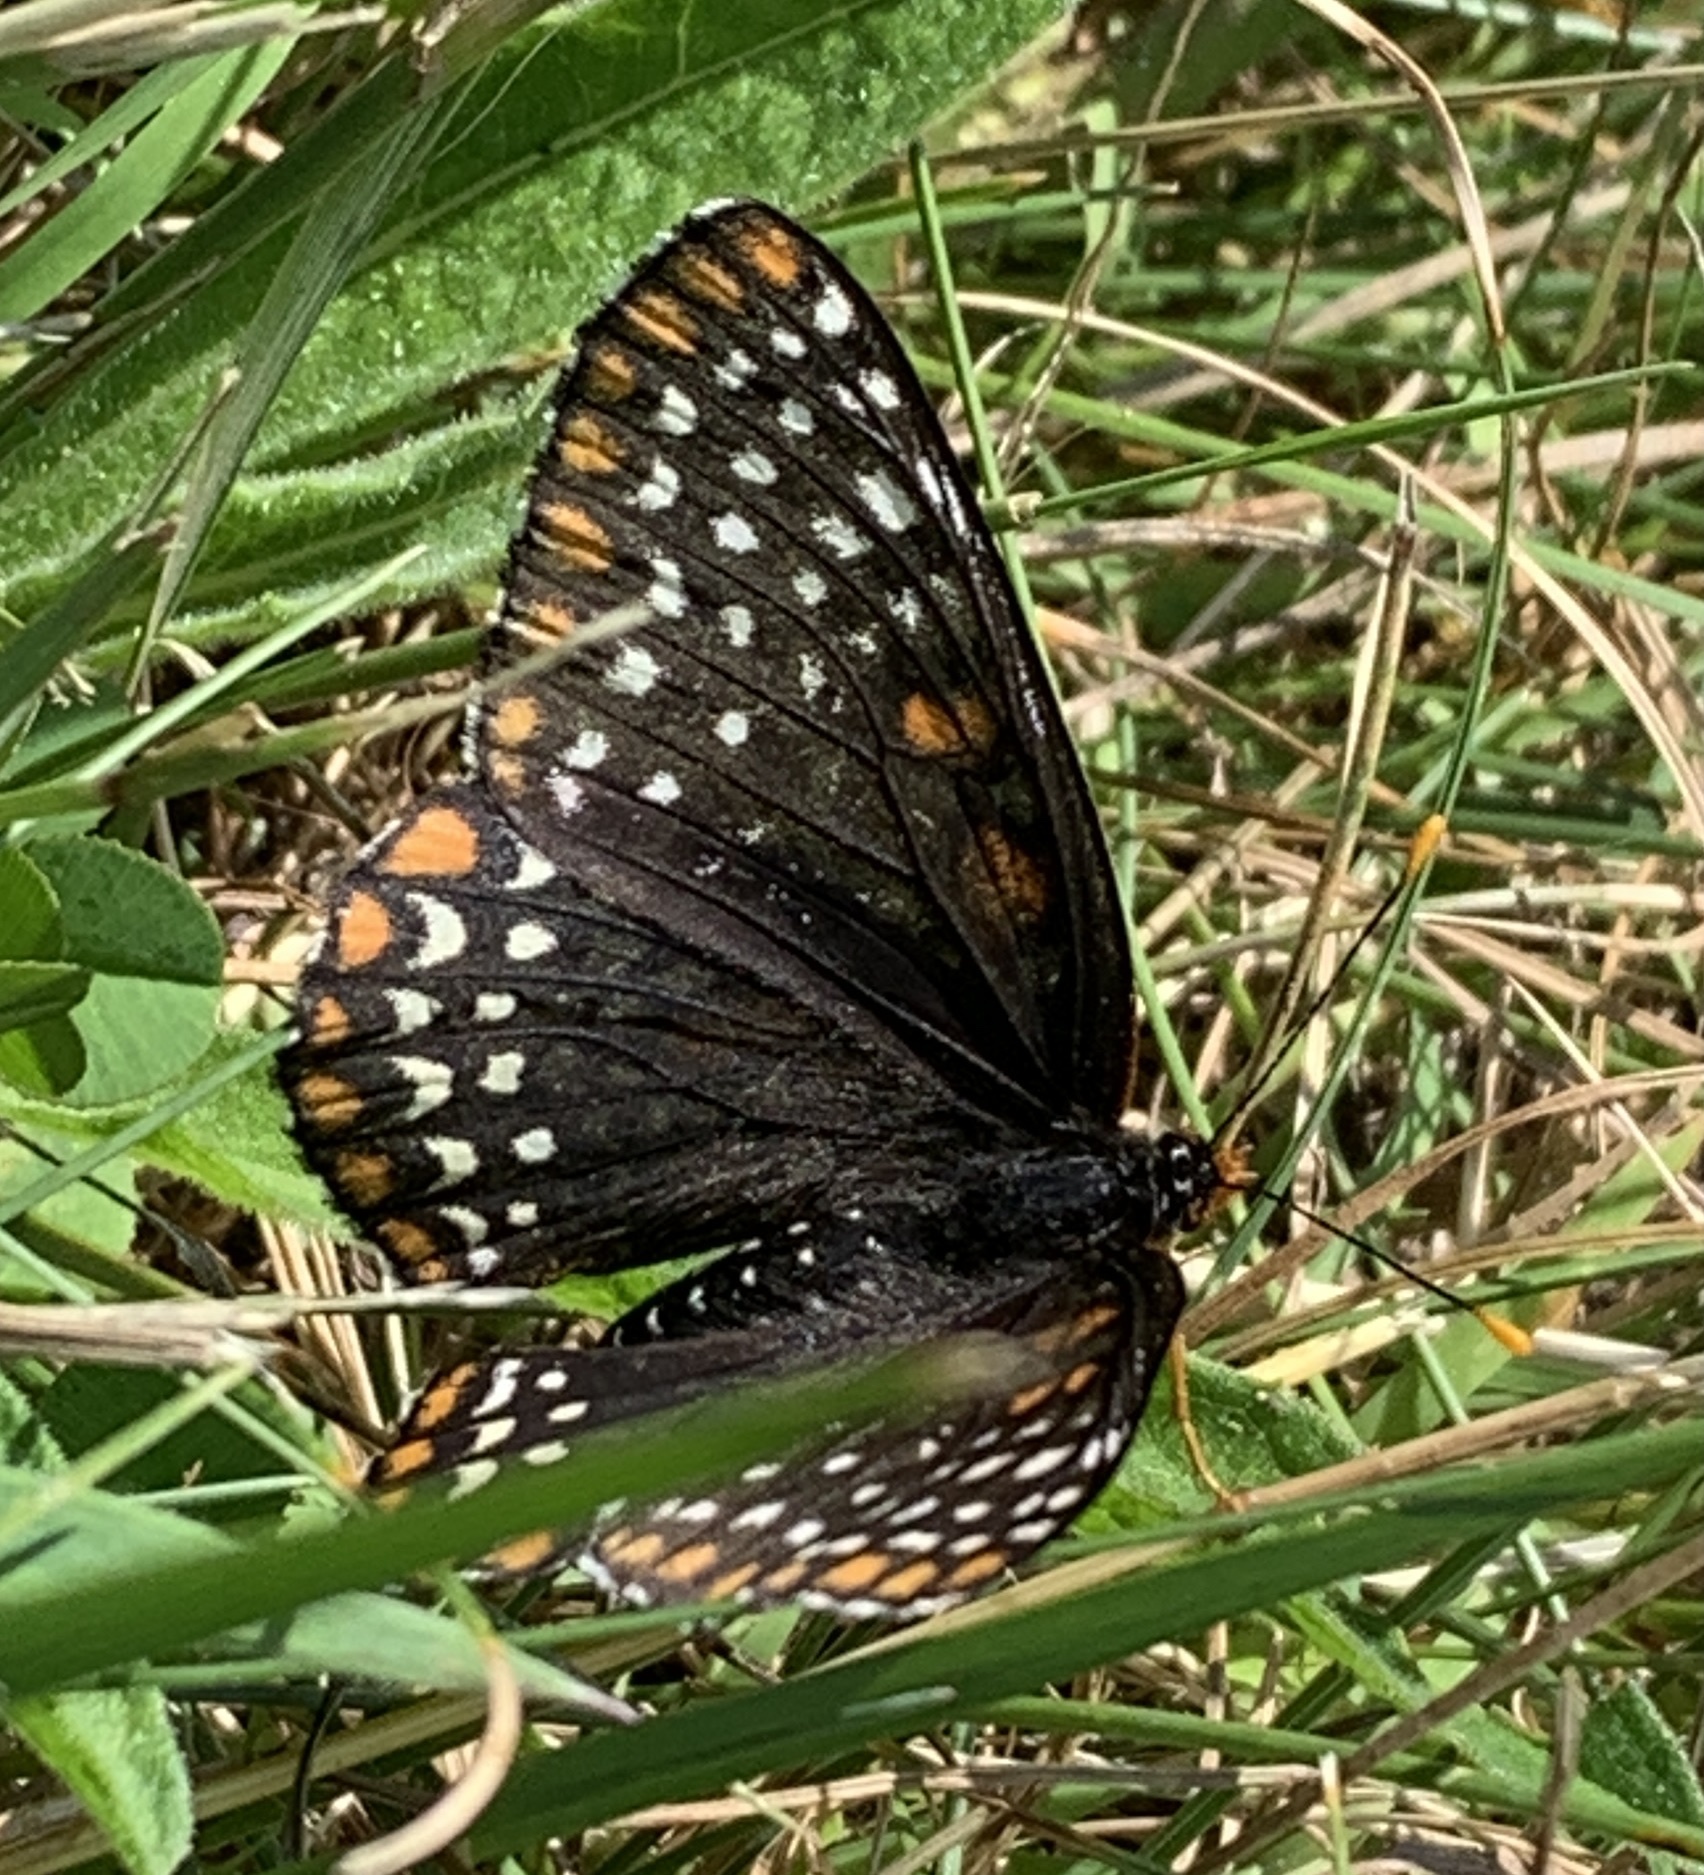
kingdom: Animalia
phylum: Arthropoda
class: Insecta
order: Lepidoptera
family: Nymphalidae
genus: Euphydryas
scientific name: Euphydryas phaeton
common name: Baltimore checkerspot
